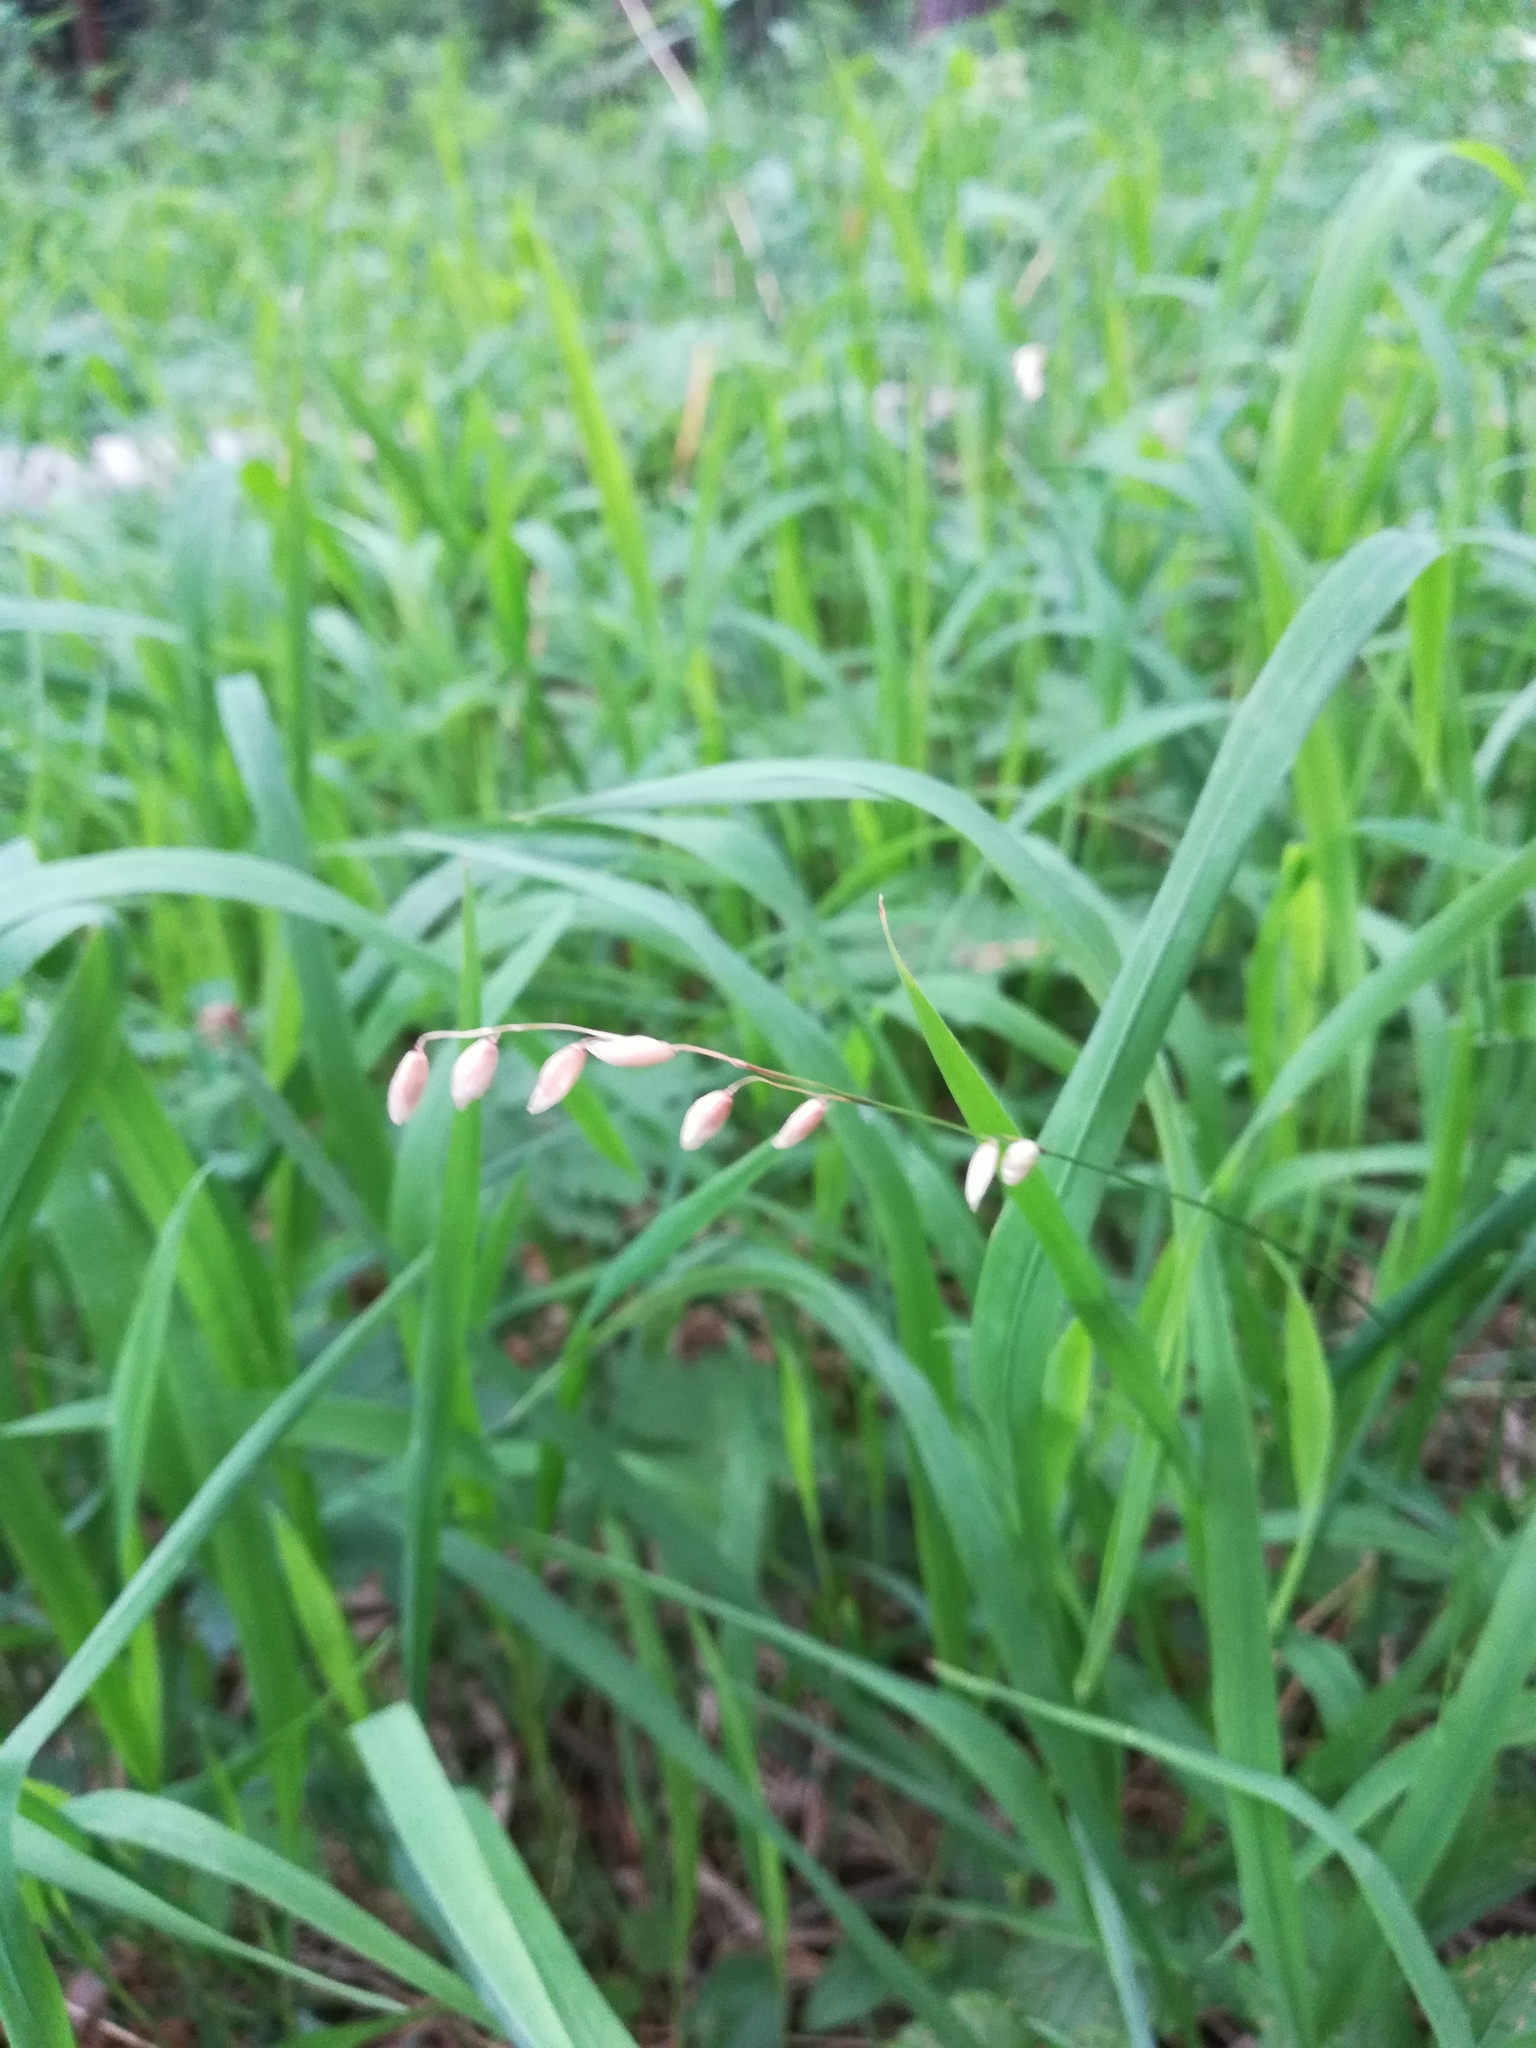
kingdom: Plantae
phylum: Tracheophyta
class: Liliopsida
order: Poales
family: Poaceae
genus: Melica
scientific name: Melica nutans
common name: Mountain melick
